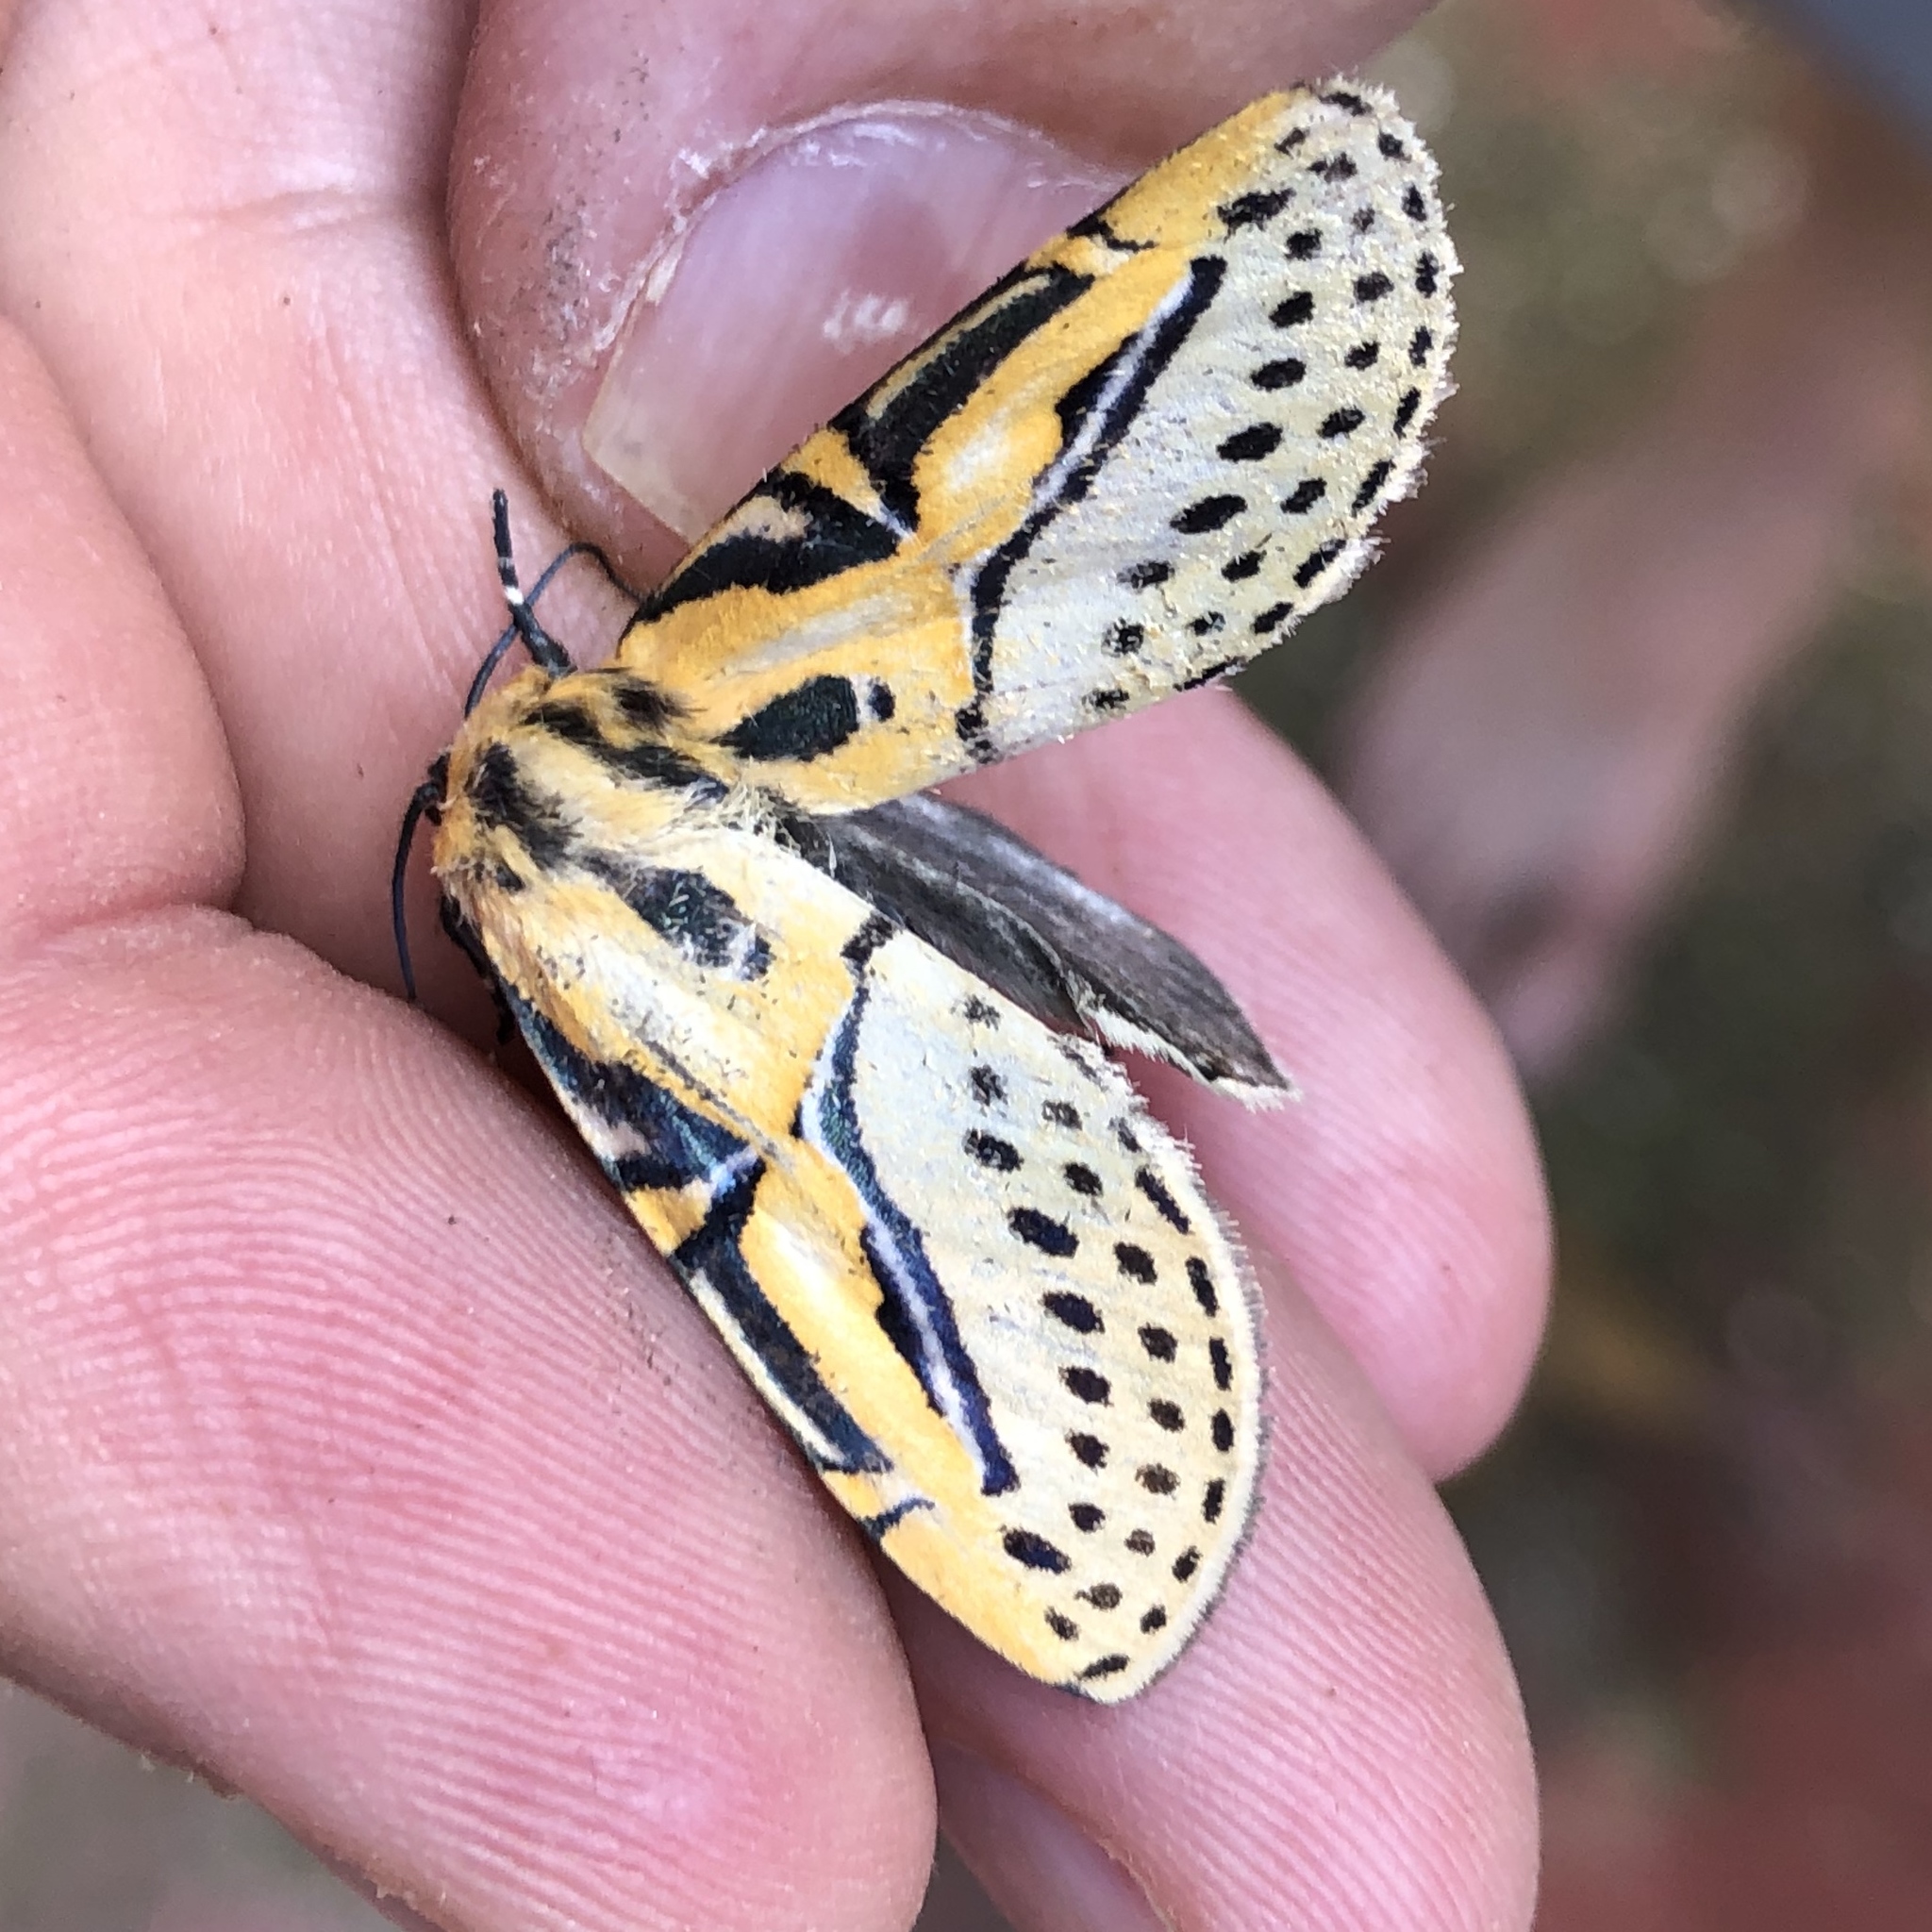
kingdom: Animalia
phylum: Arthropoda
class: Insecta
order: Lepidoptera
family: Erebidae
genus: Diphthera
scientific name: Diphthera festiva
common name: Hieroglyphic moth
